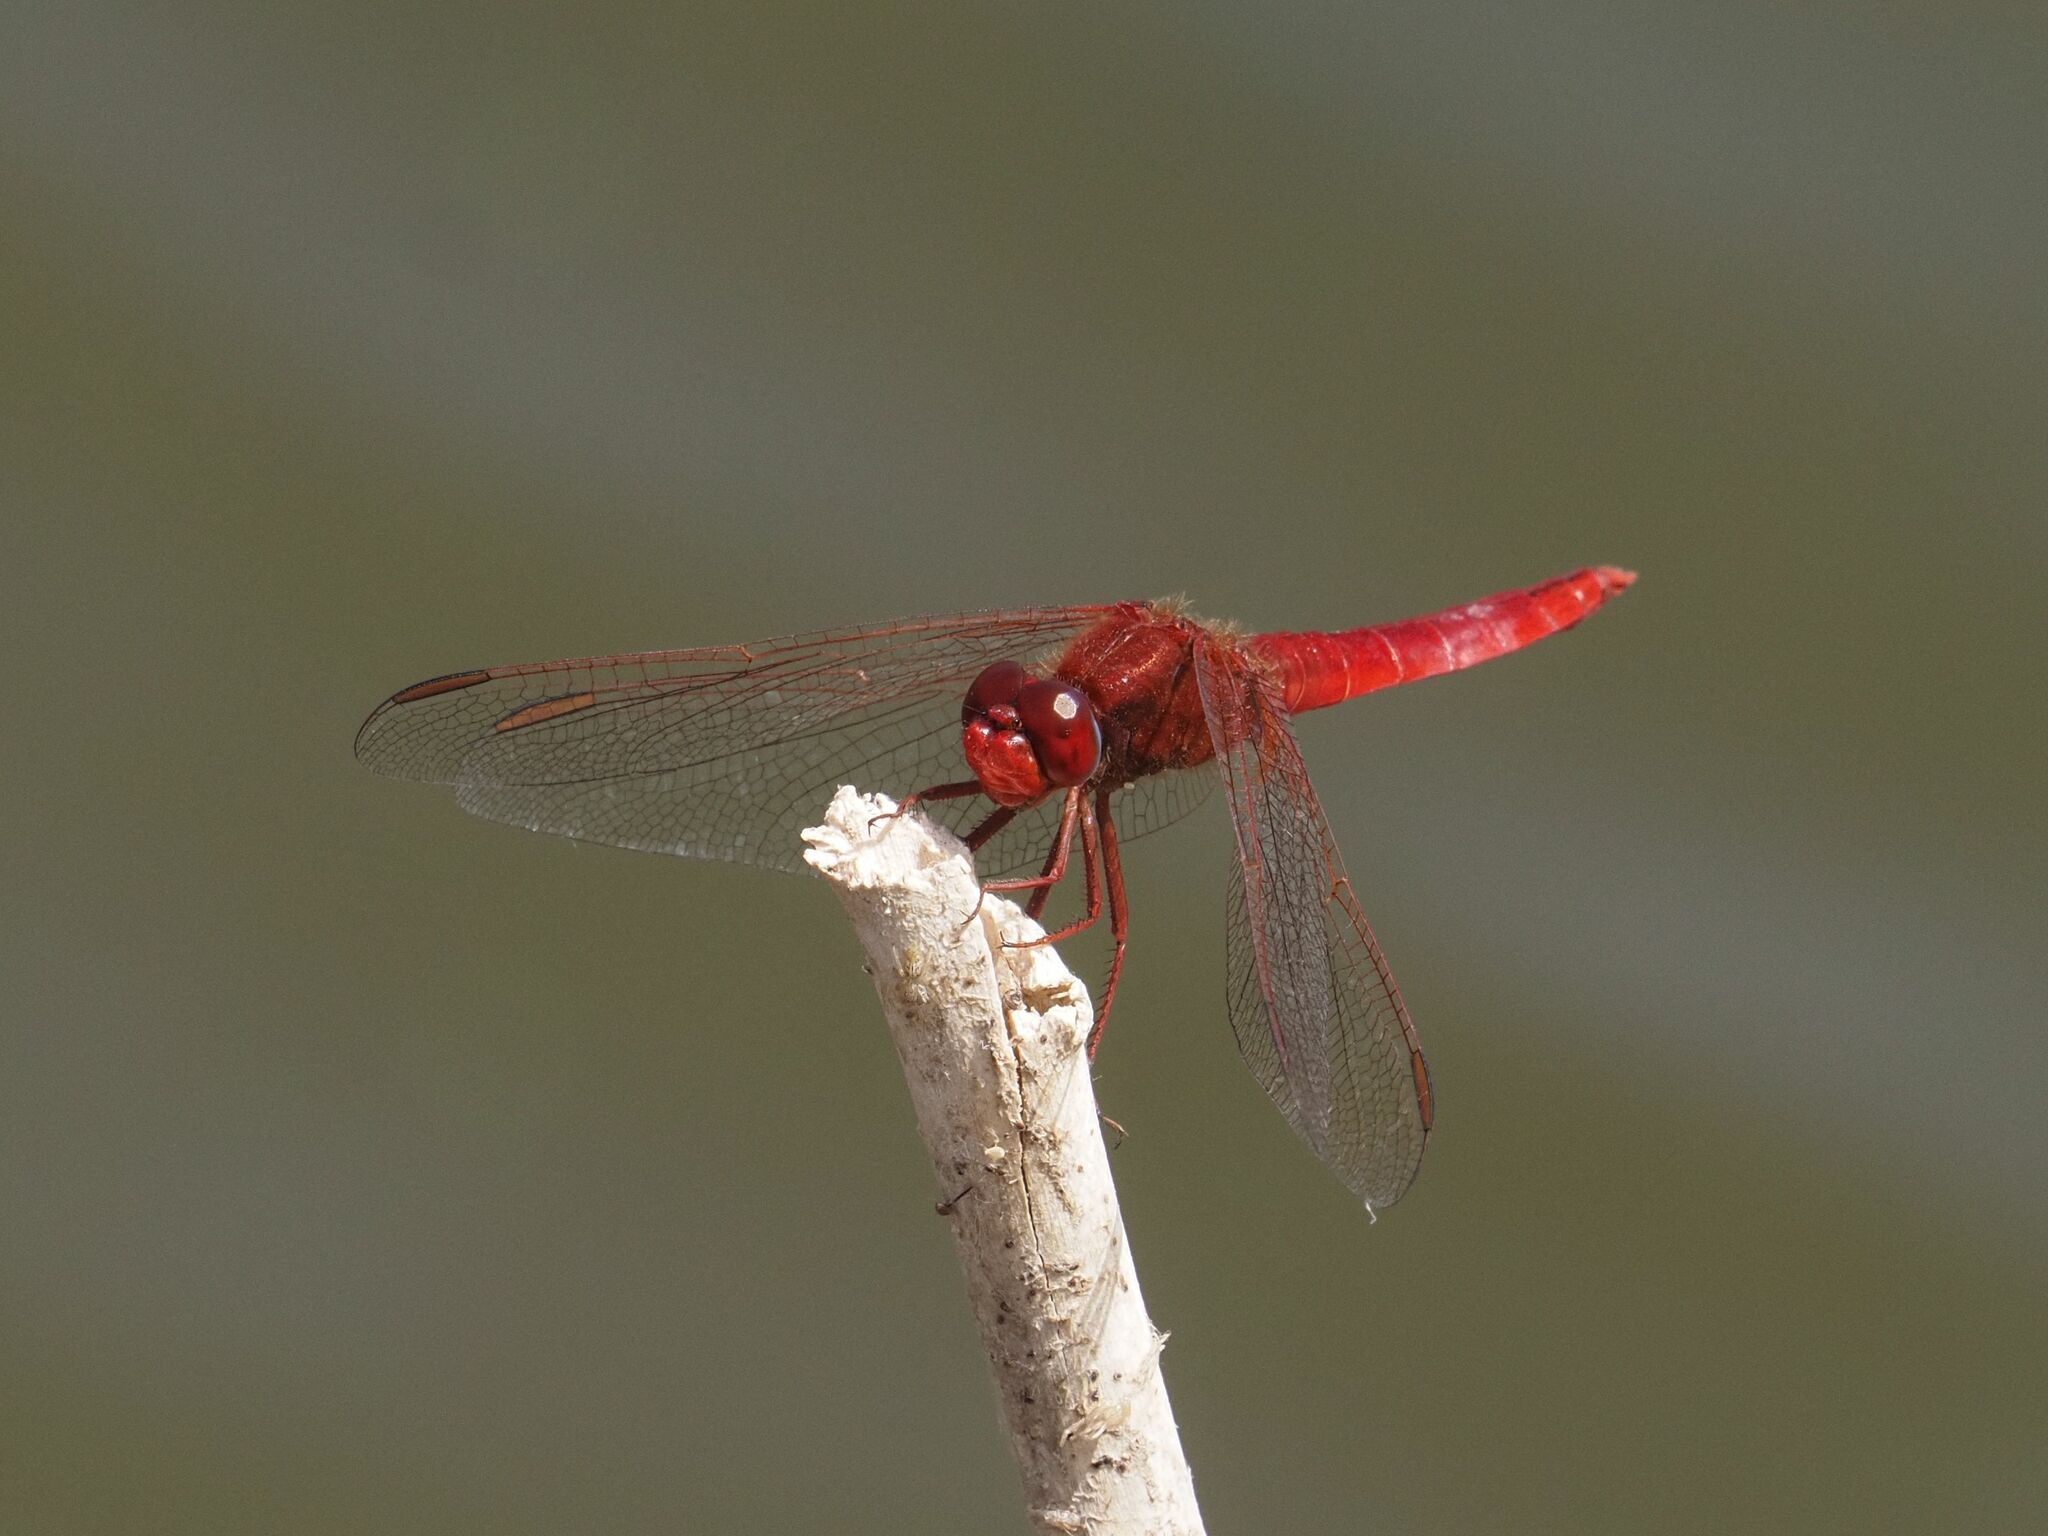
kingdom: Animalia
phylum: Arthropoda
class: Insecta
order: Odonata
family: Libellulidae
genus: Crocothemis
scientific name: Crocothemis erythraea
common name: Scarlet dragonfly
